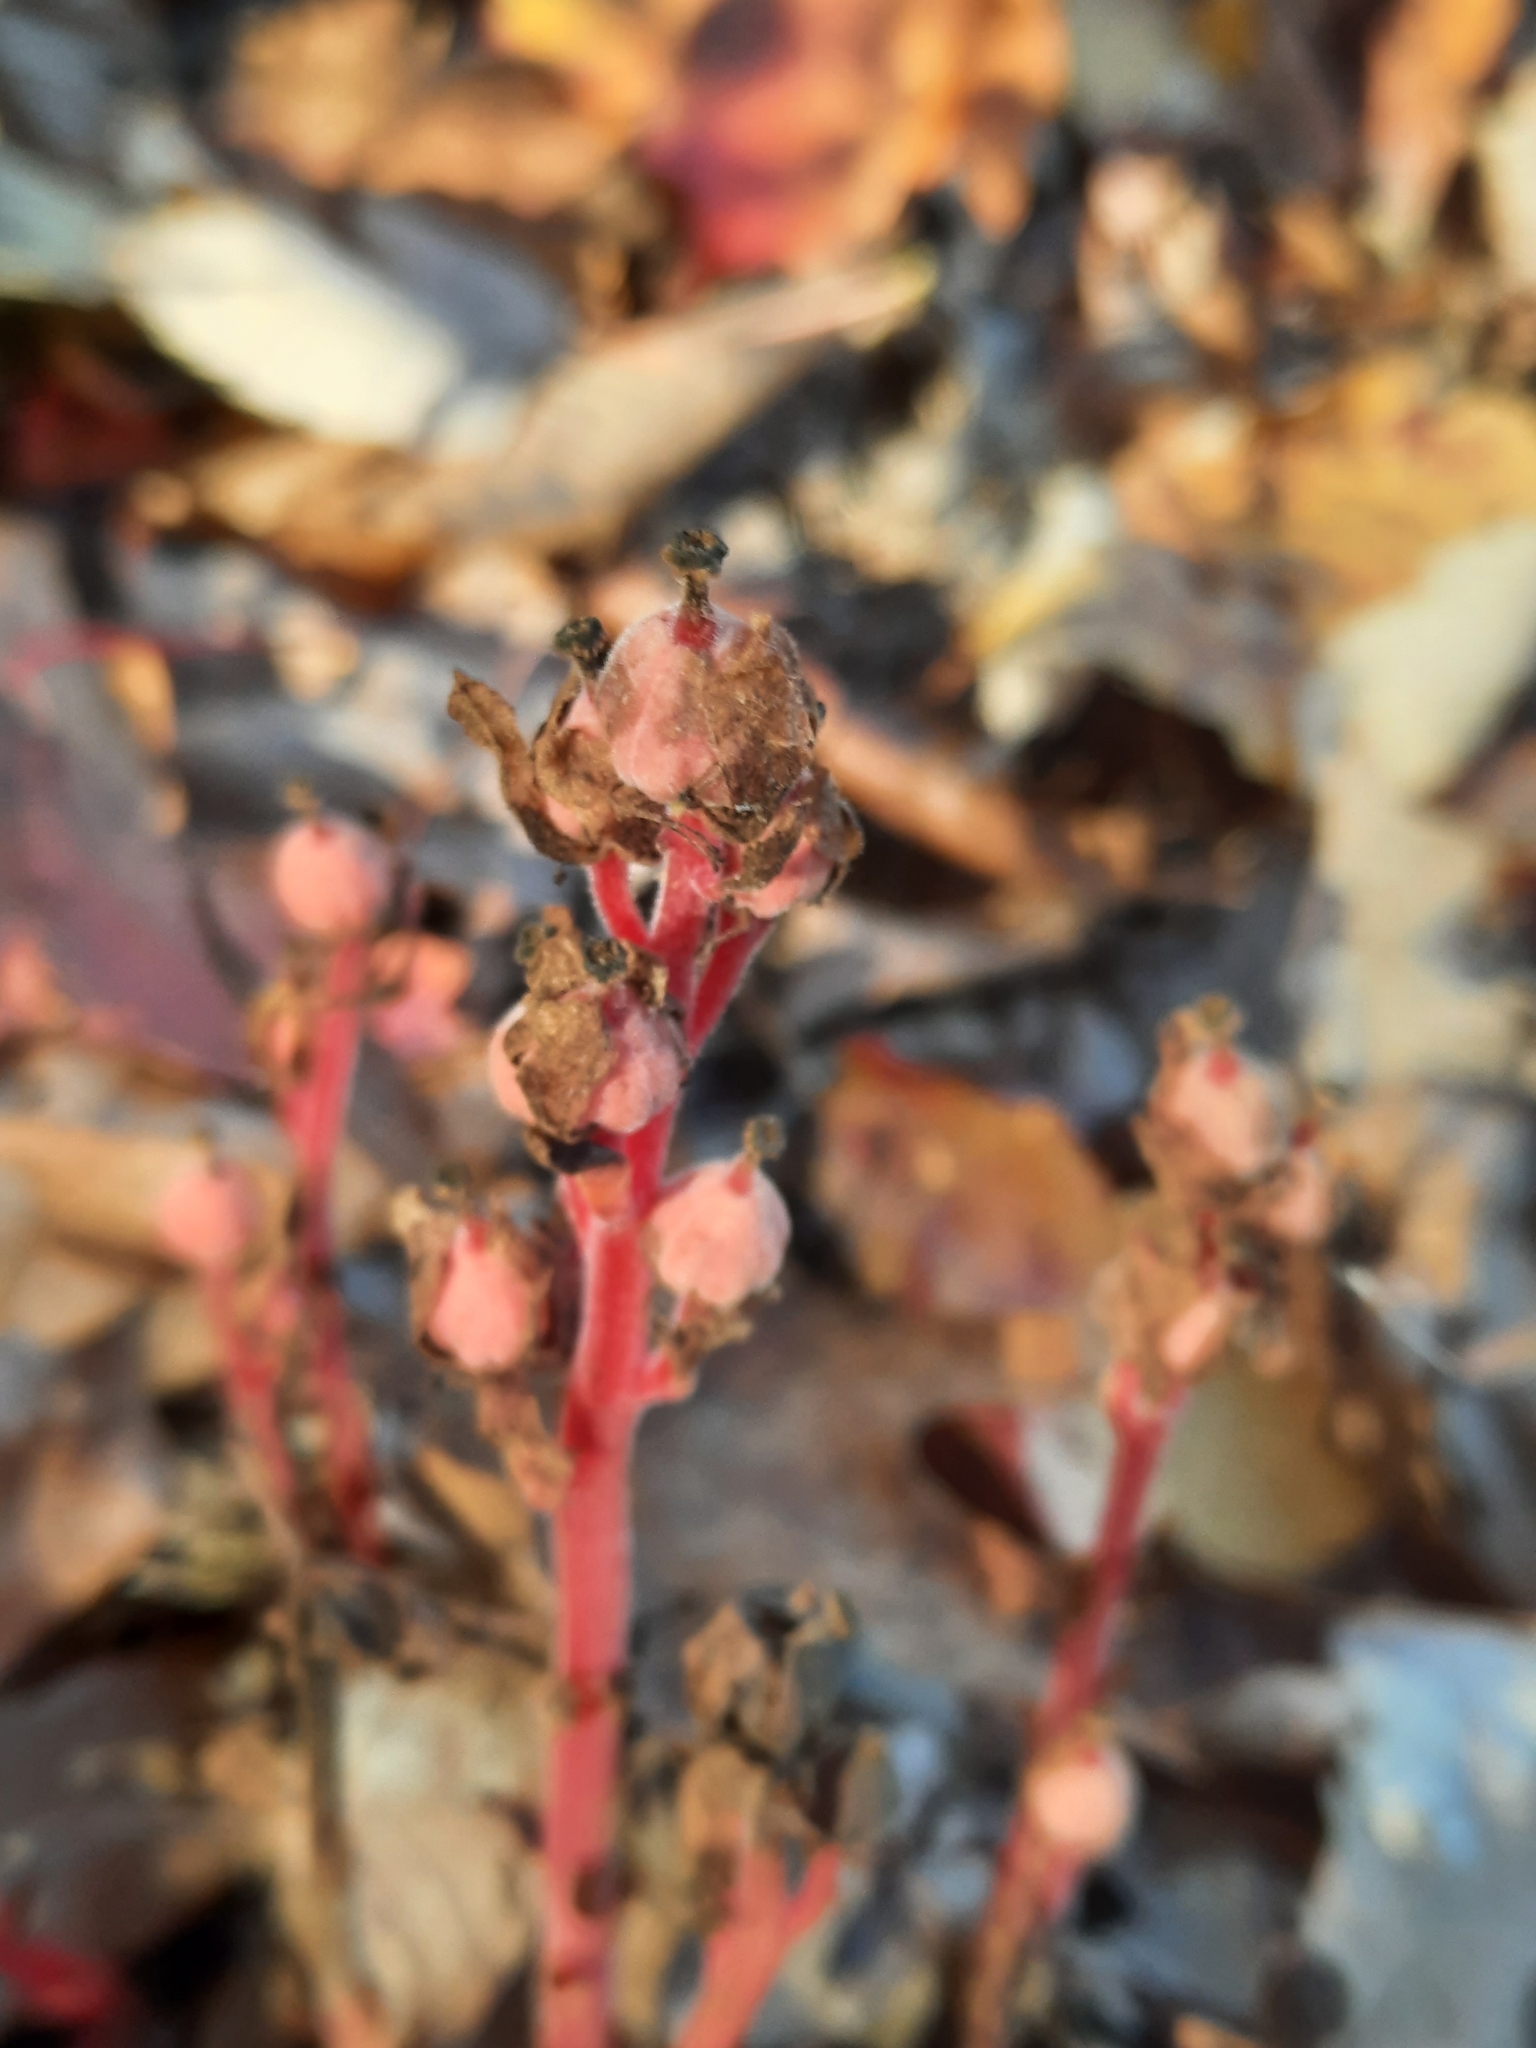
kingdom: Plantae
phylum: Tracheophyta
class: Magnoliopsida
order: Ericales
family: Ericaceae
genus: Hypopitys
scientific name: Hypopitys monotropa
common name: Yellow bird's-nest
